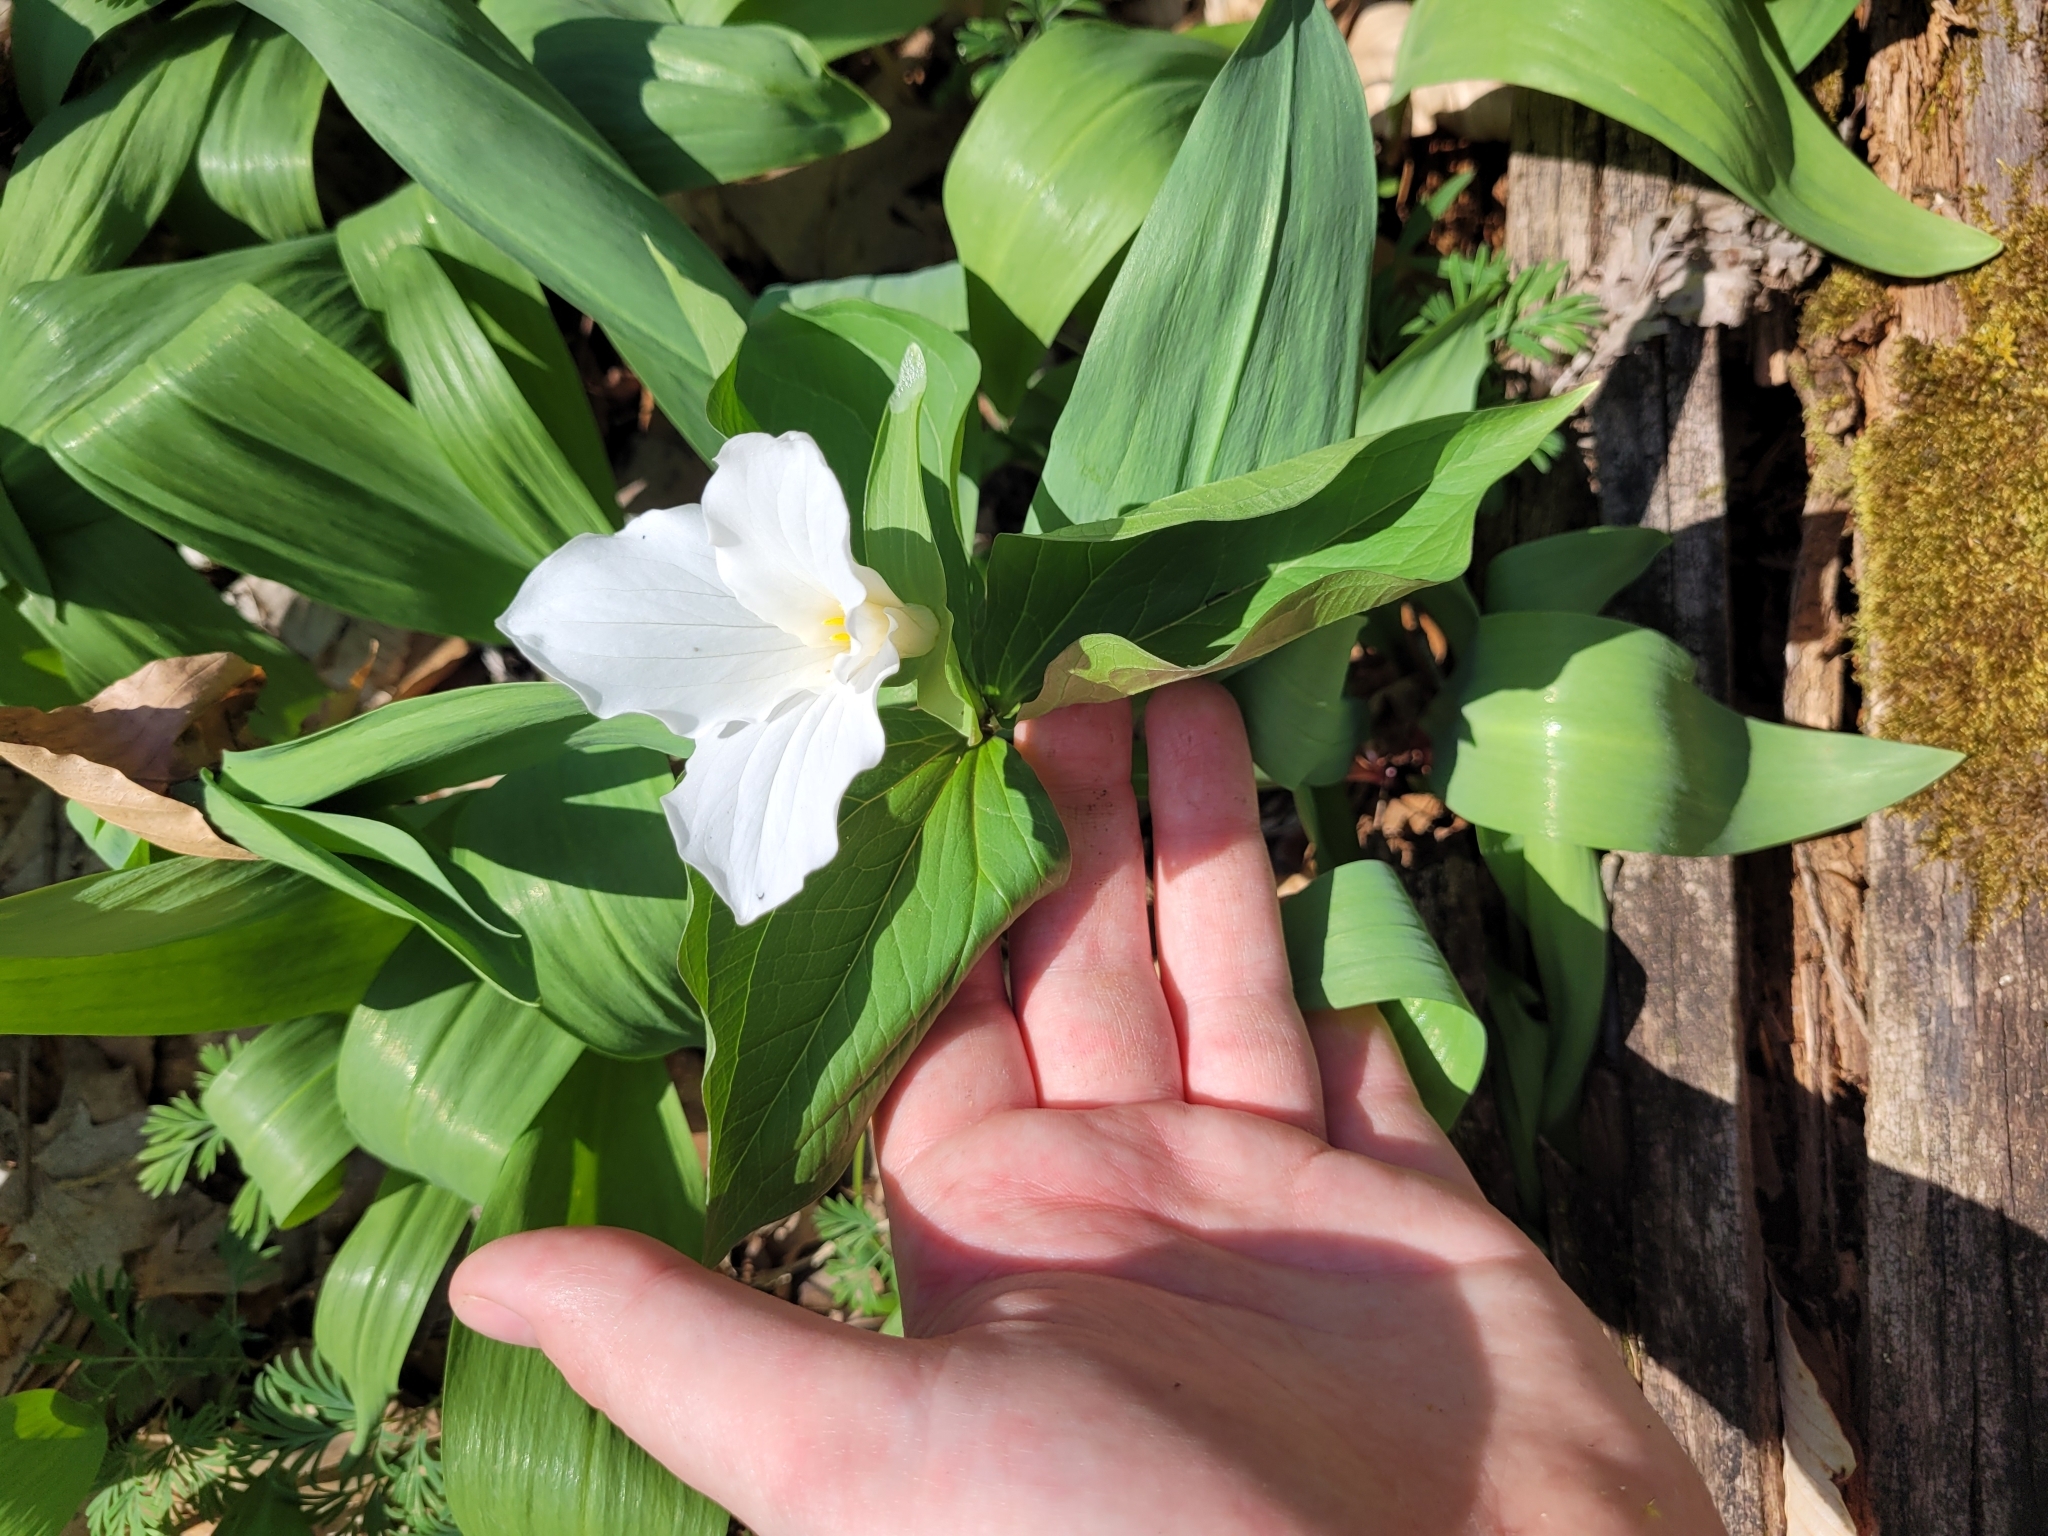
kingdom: Plantae
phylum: Tracheophyta
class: Liliopsida
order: Liliales
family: Melanthiaceae
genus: Trillium
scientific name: Trillium grandiflorum
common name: Great white trillium
